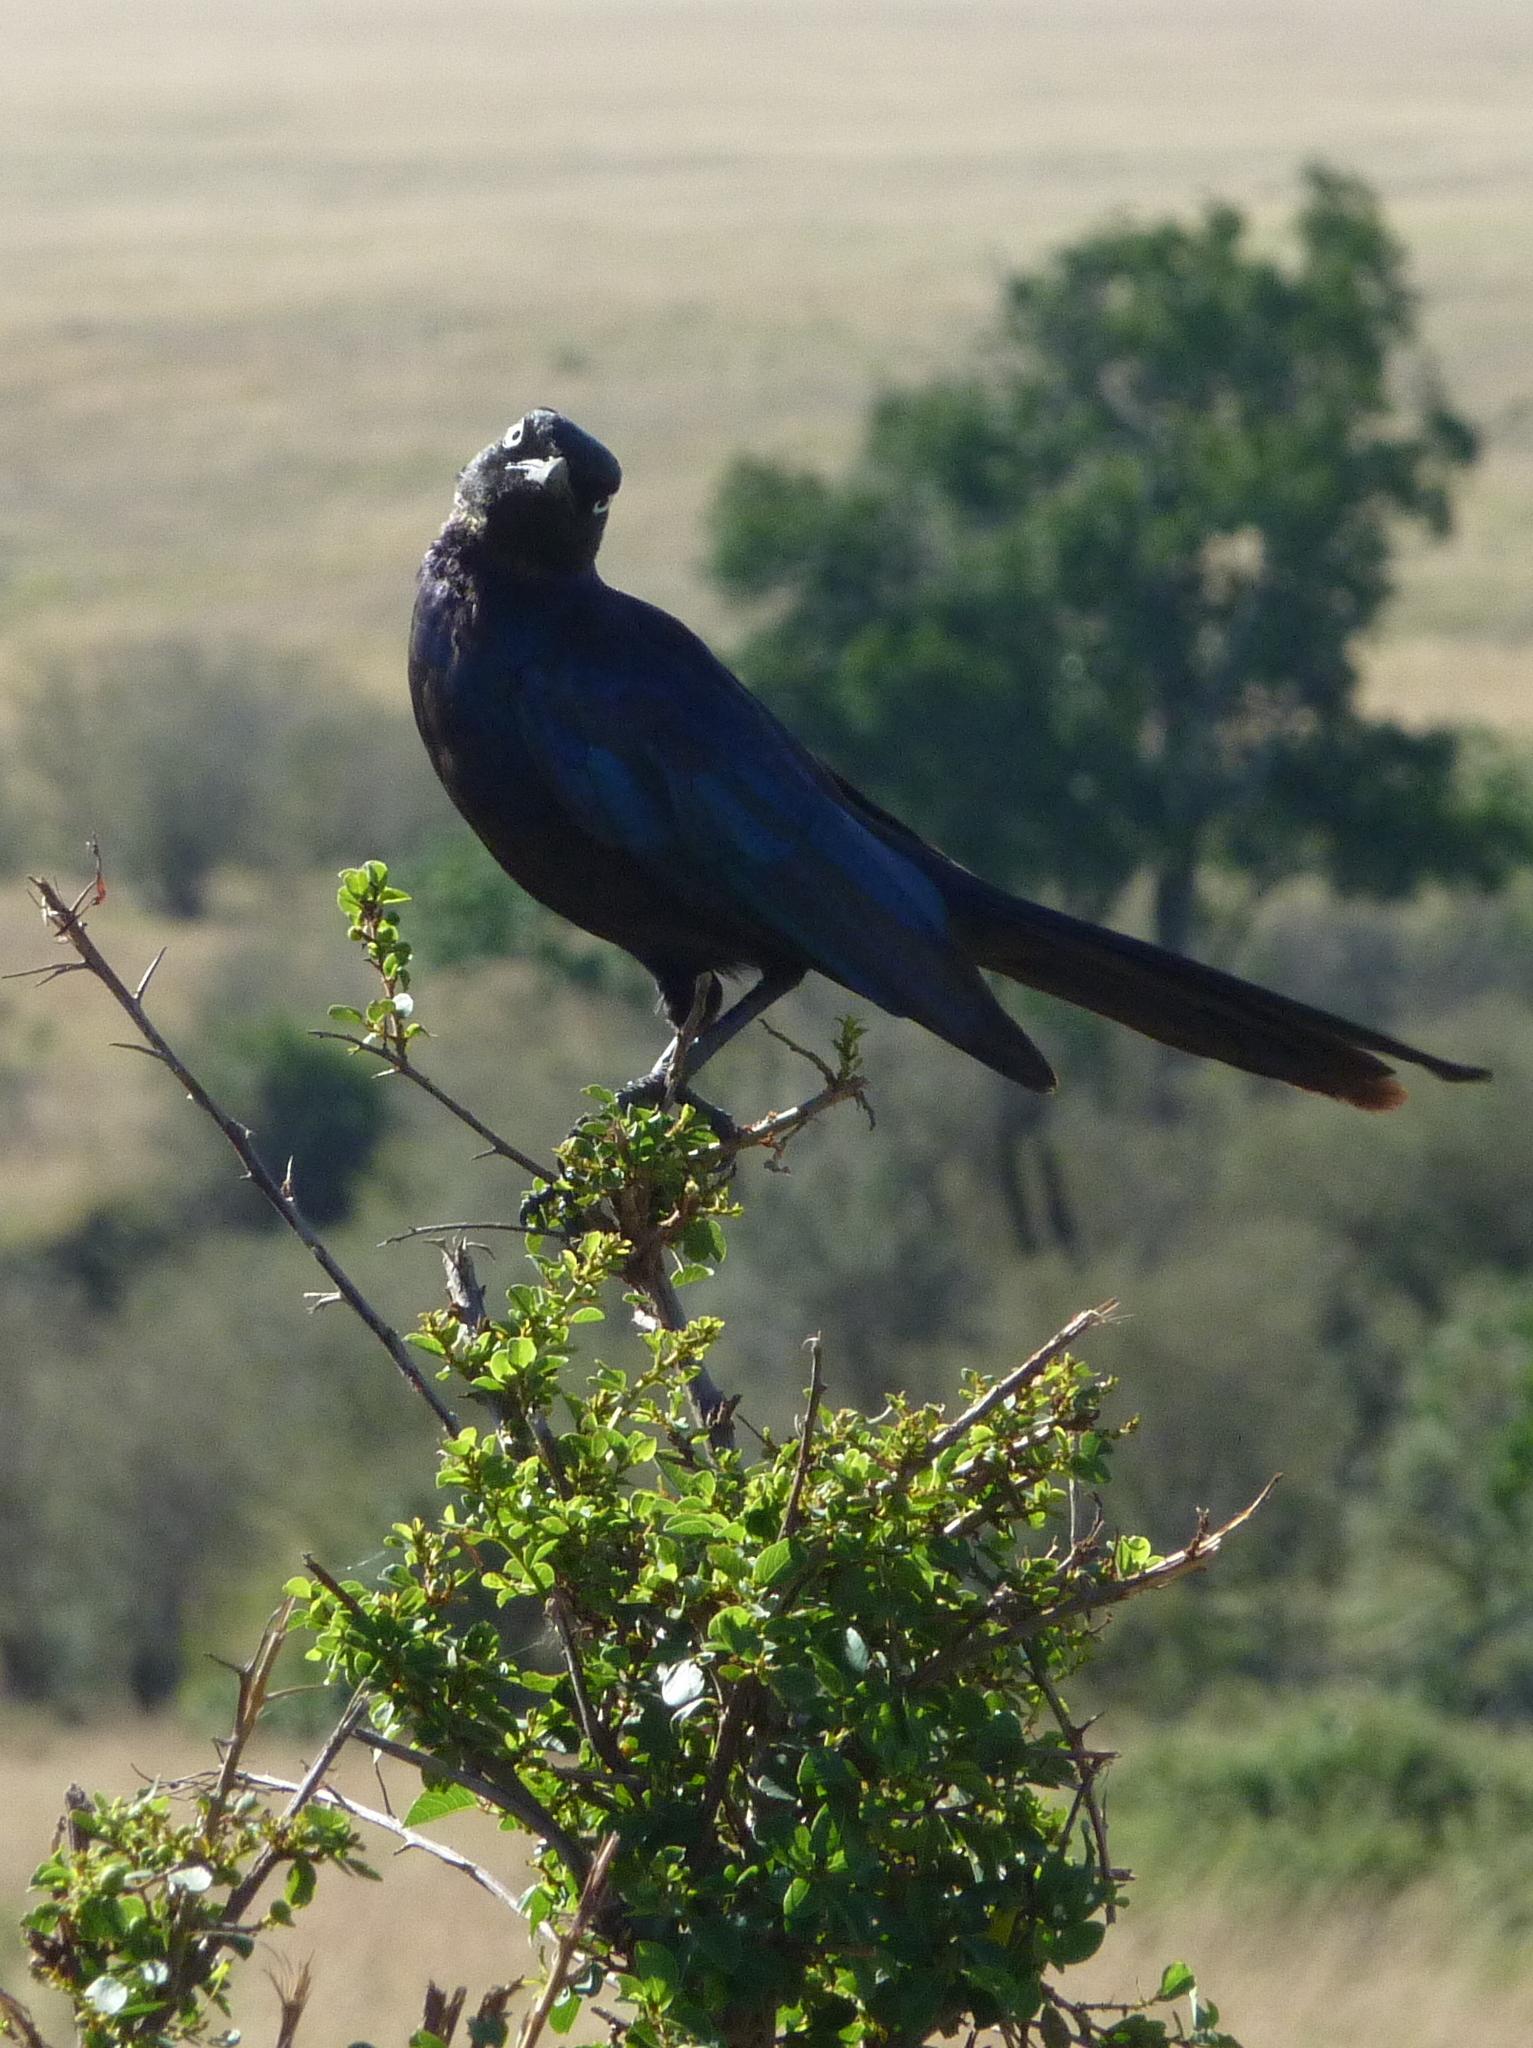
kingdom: Animalia
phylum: Chordata
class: Aves
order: Passeriformes
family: Sturnidae
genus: Lamprotornis
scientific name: Lamprotornis purpuroptera
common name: Rüppell's starling
